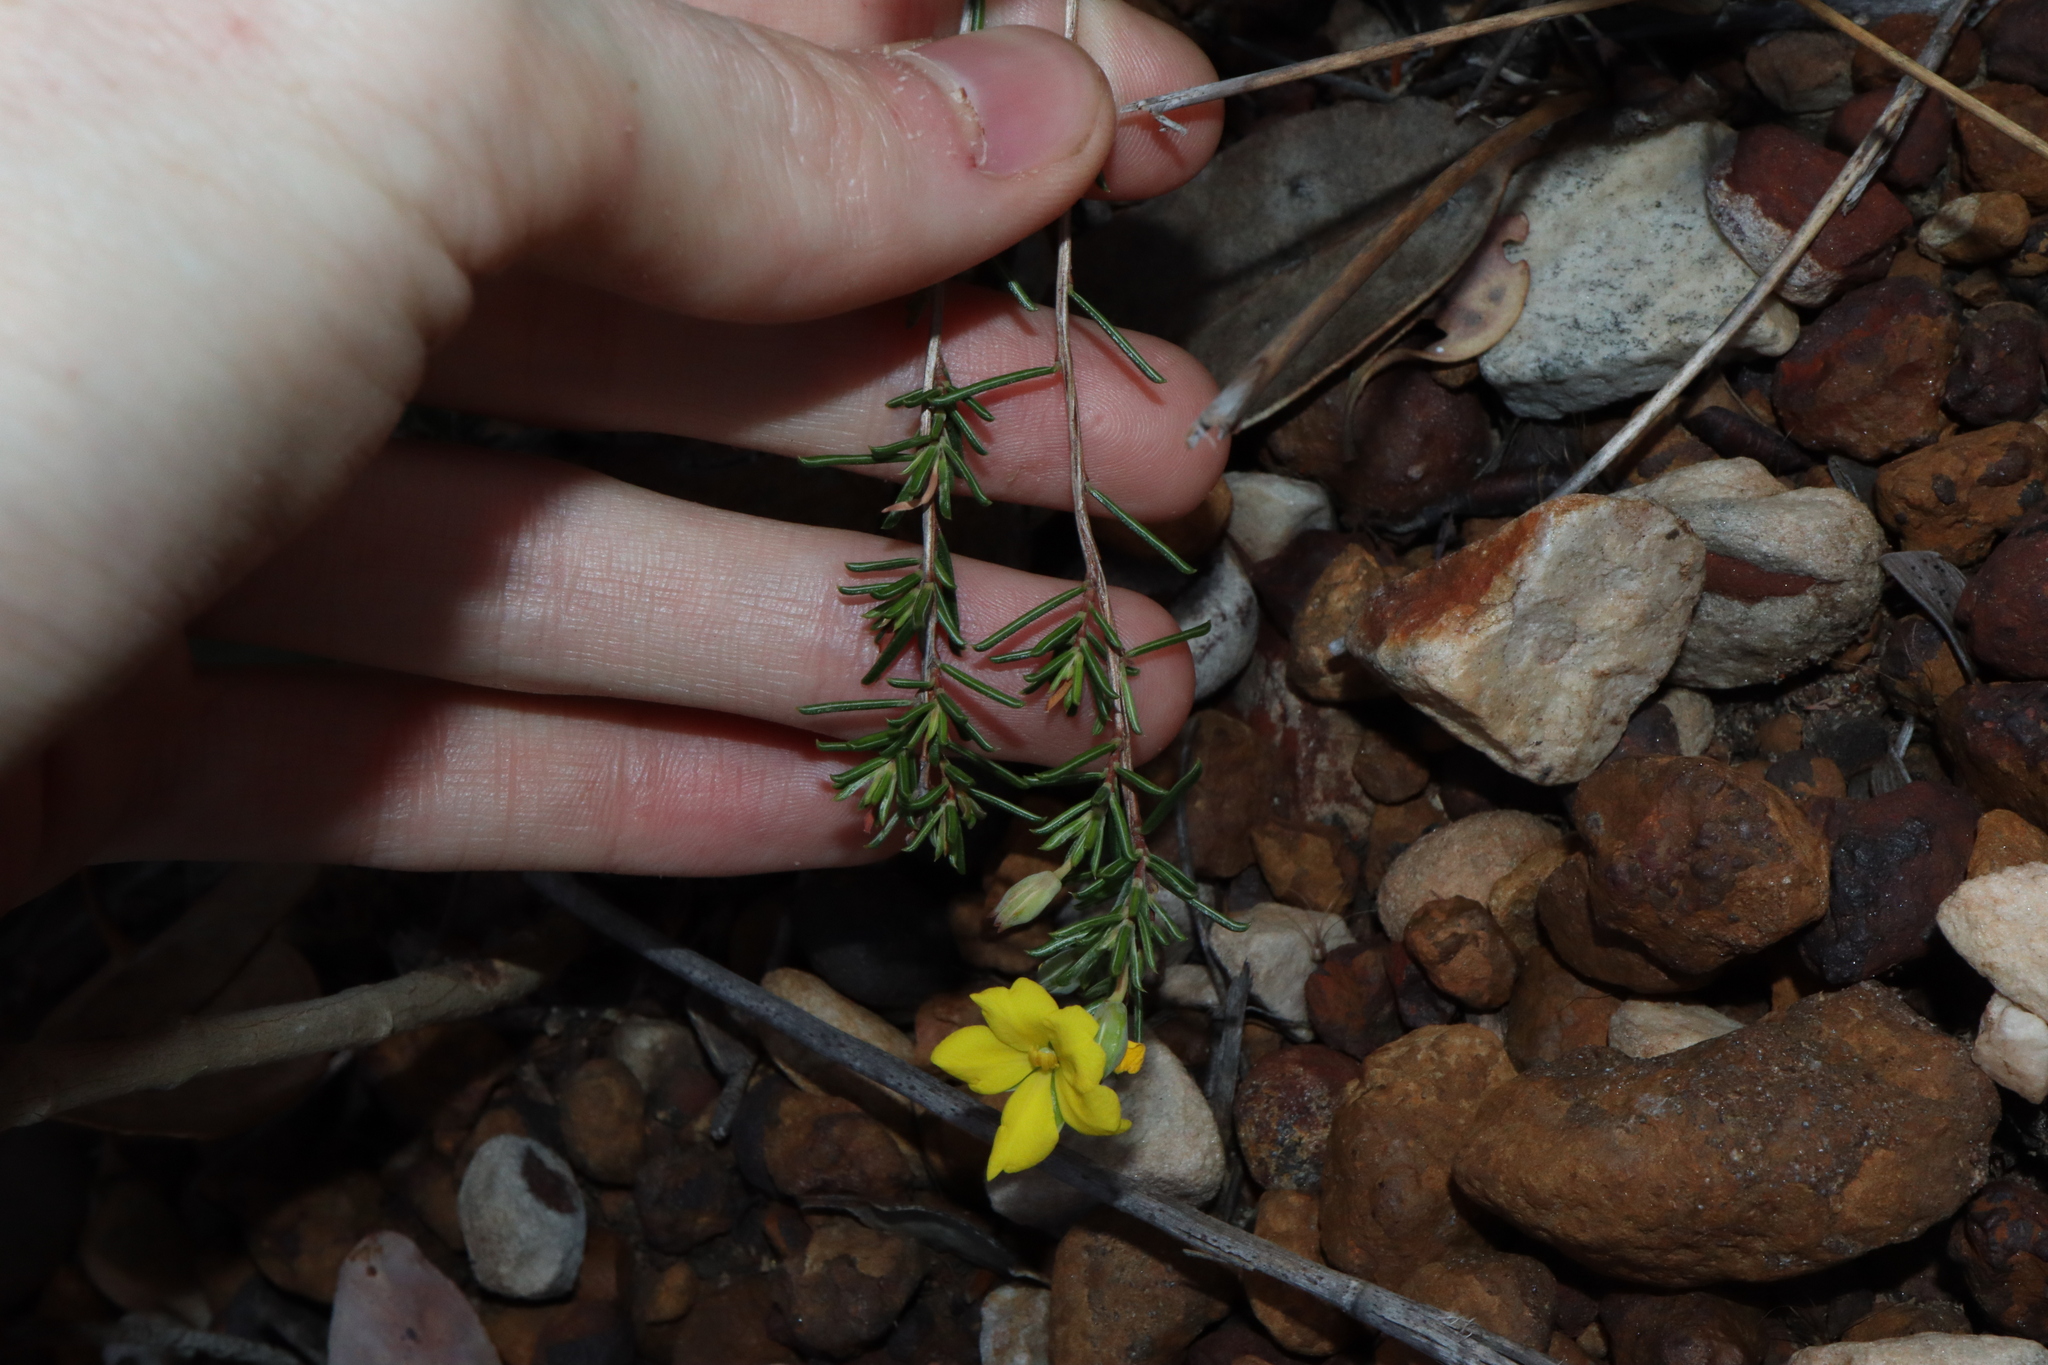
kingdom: Plantae
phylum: Tracheophyta
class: Magnoliopsida
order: Dilleniales
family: Dilleniaceae
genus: Hibbertia
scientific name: Hibbertia lineata
